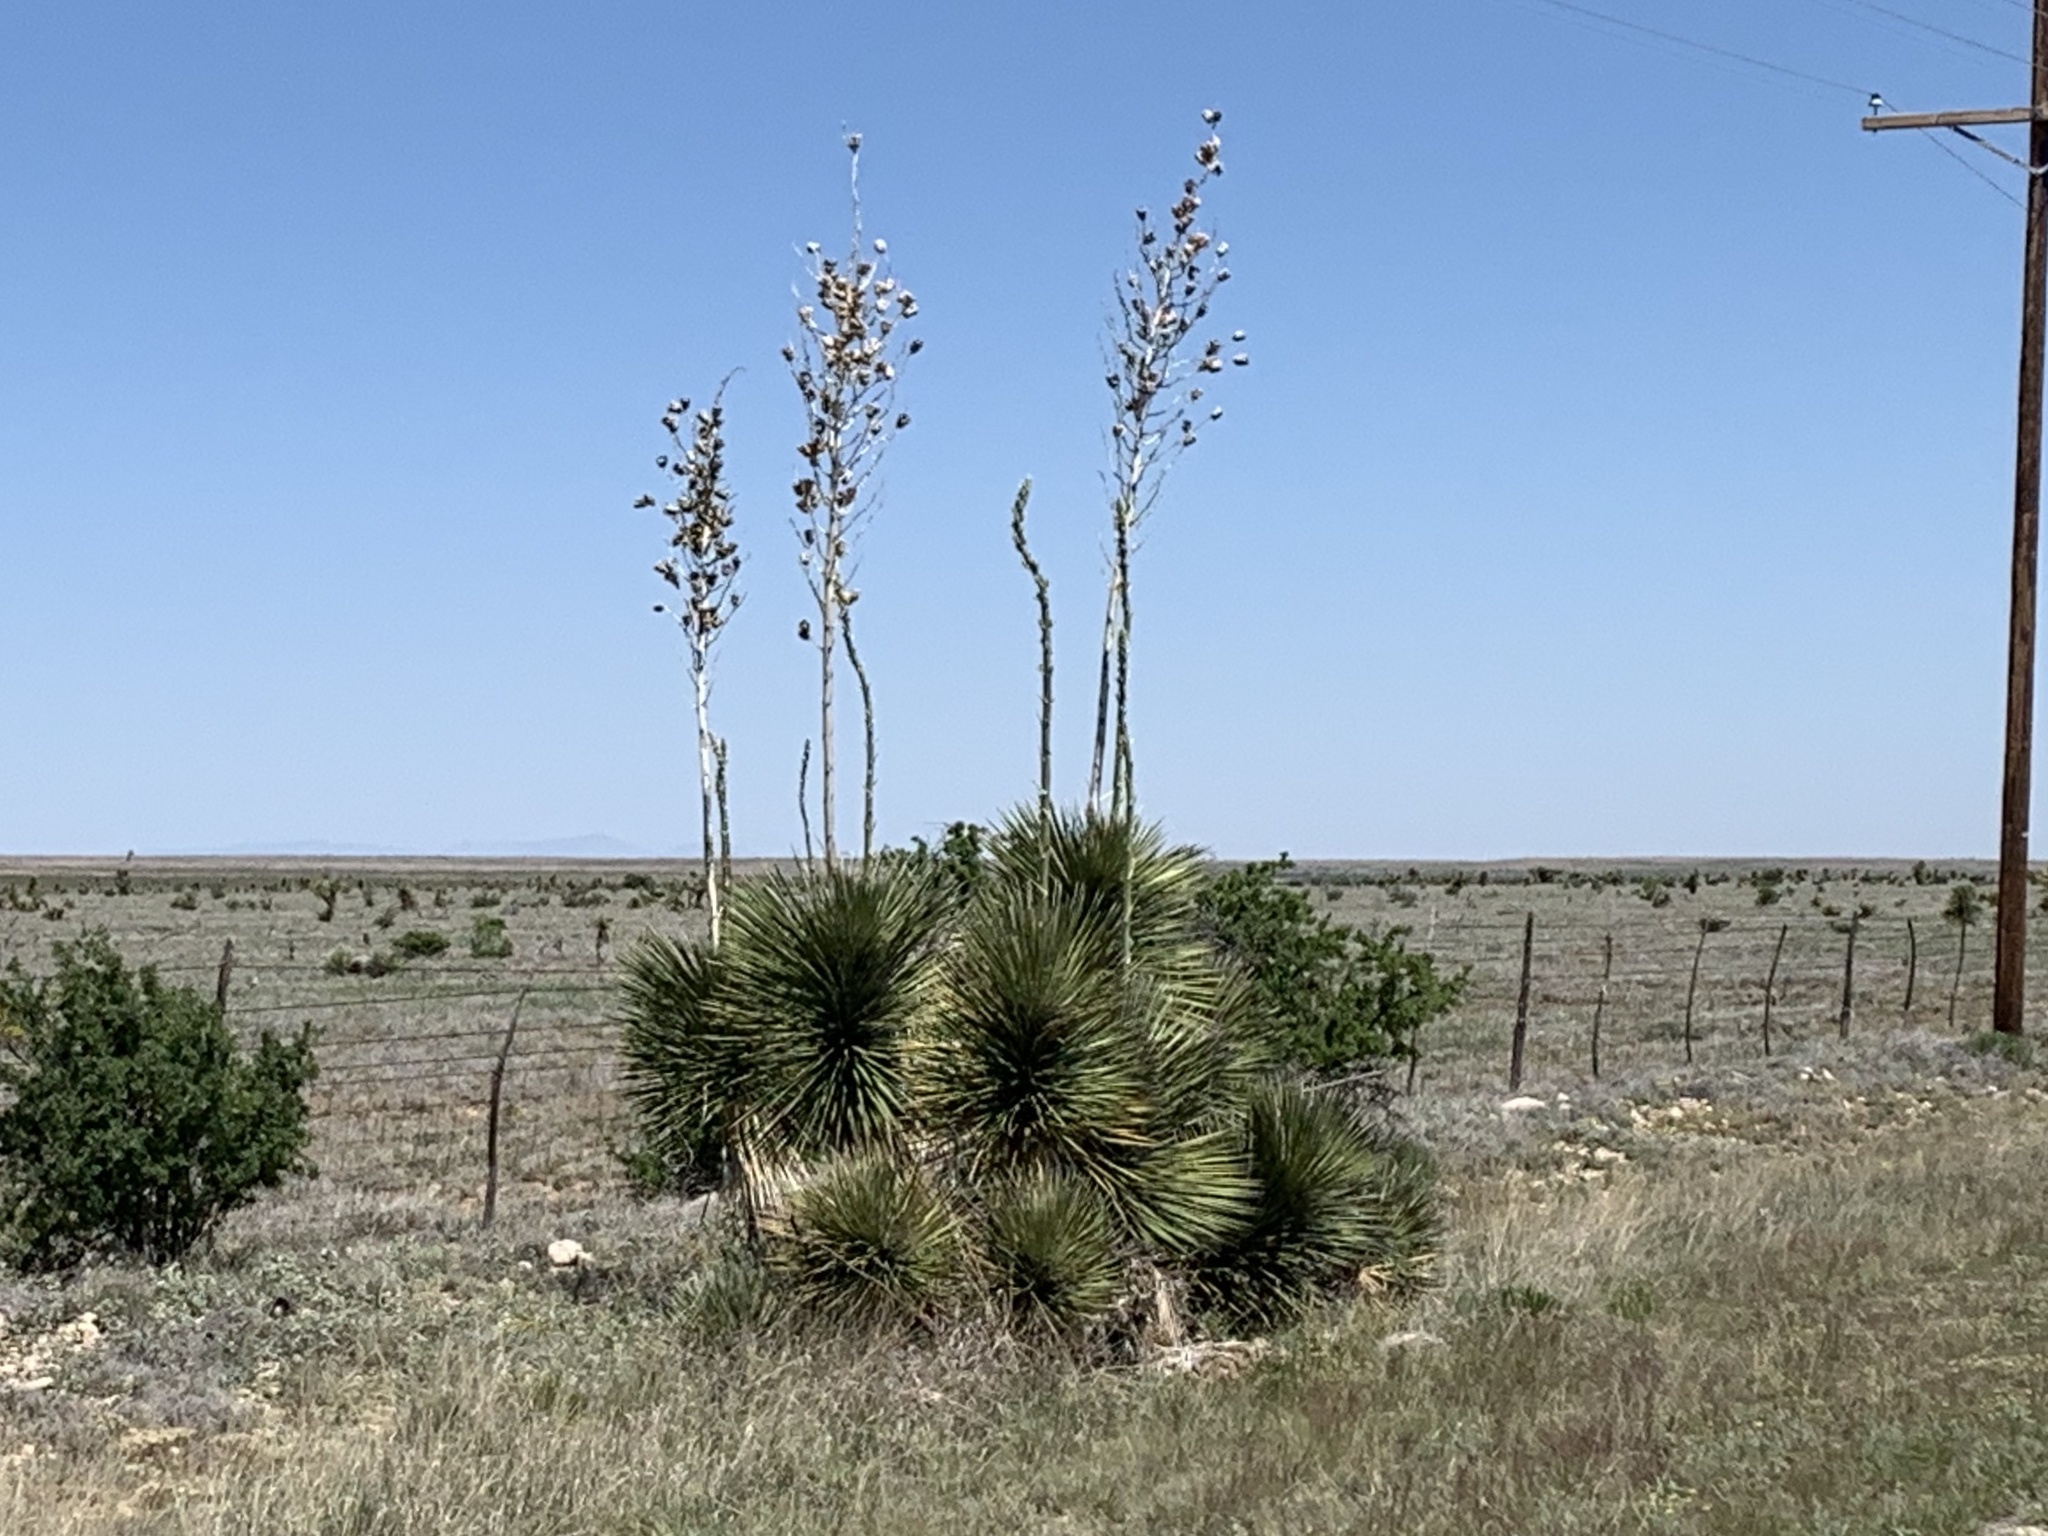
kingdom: Plantae
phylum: Tracheophyta
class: Liliopsida
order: Asparagales
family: Asparagaceae
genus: Yucca
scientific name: Yucca elata
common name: Palmella
